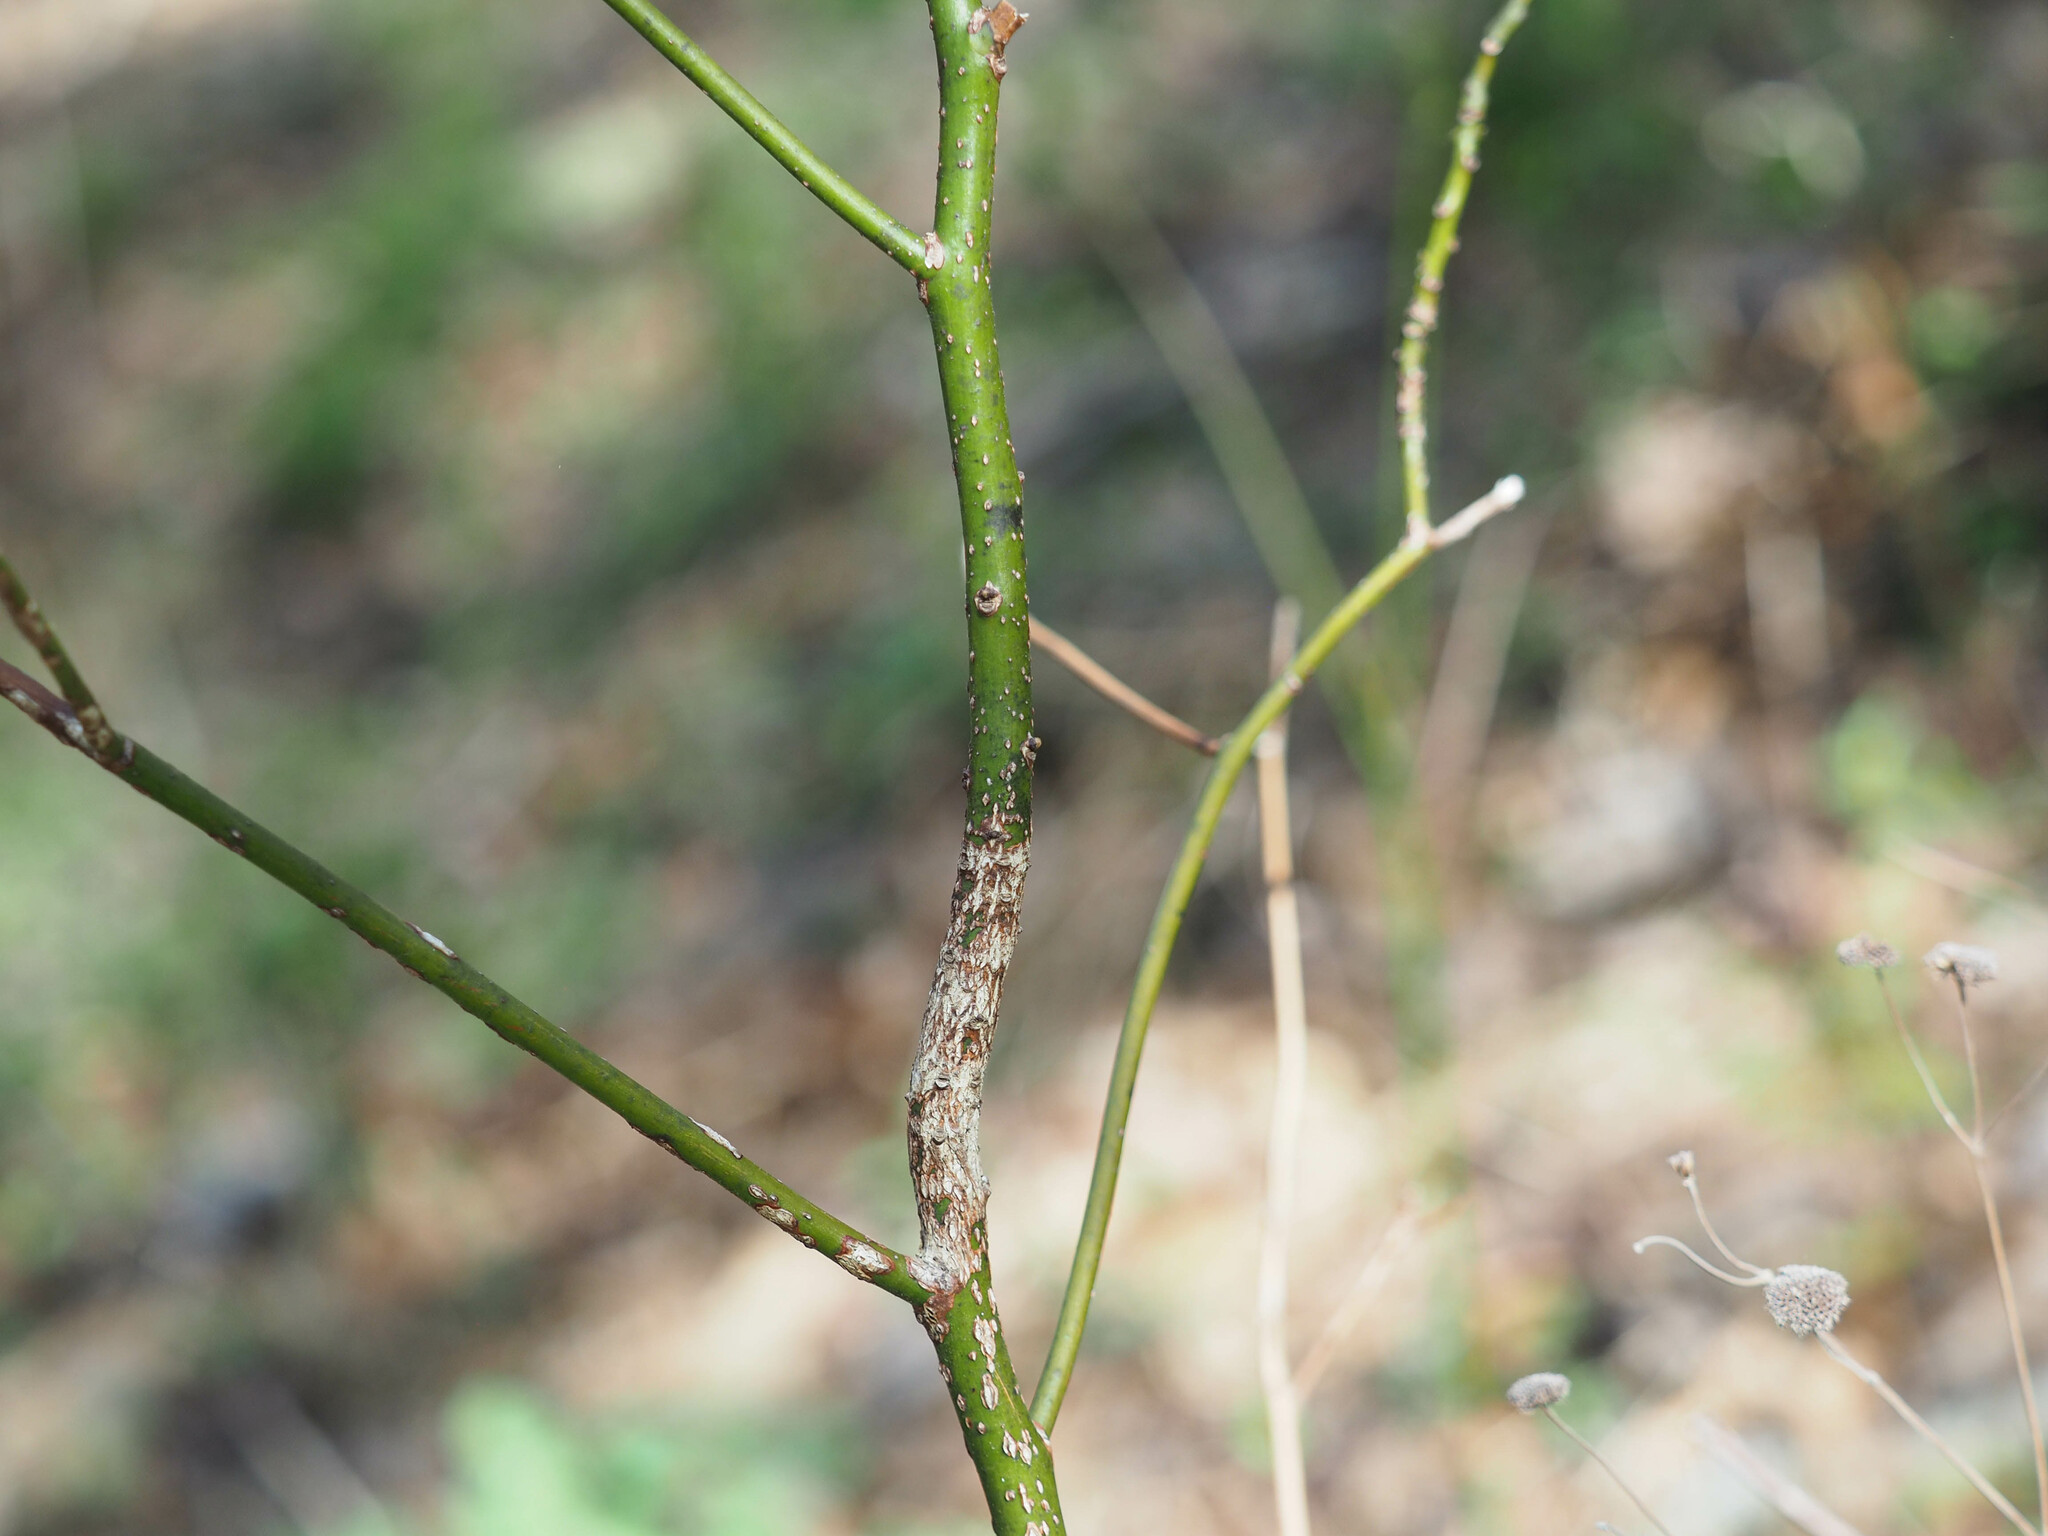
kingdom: Plantae
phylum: Tracheophyta
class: Magnoliopsida
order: Laurales
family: Lauraceae
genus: Sassafras
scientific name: Sassafras albidum
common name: Sassafras
